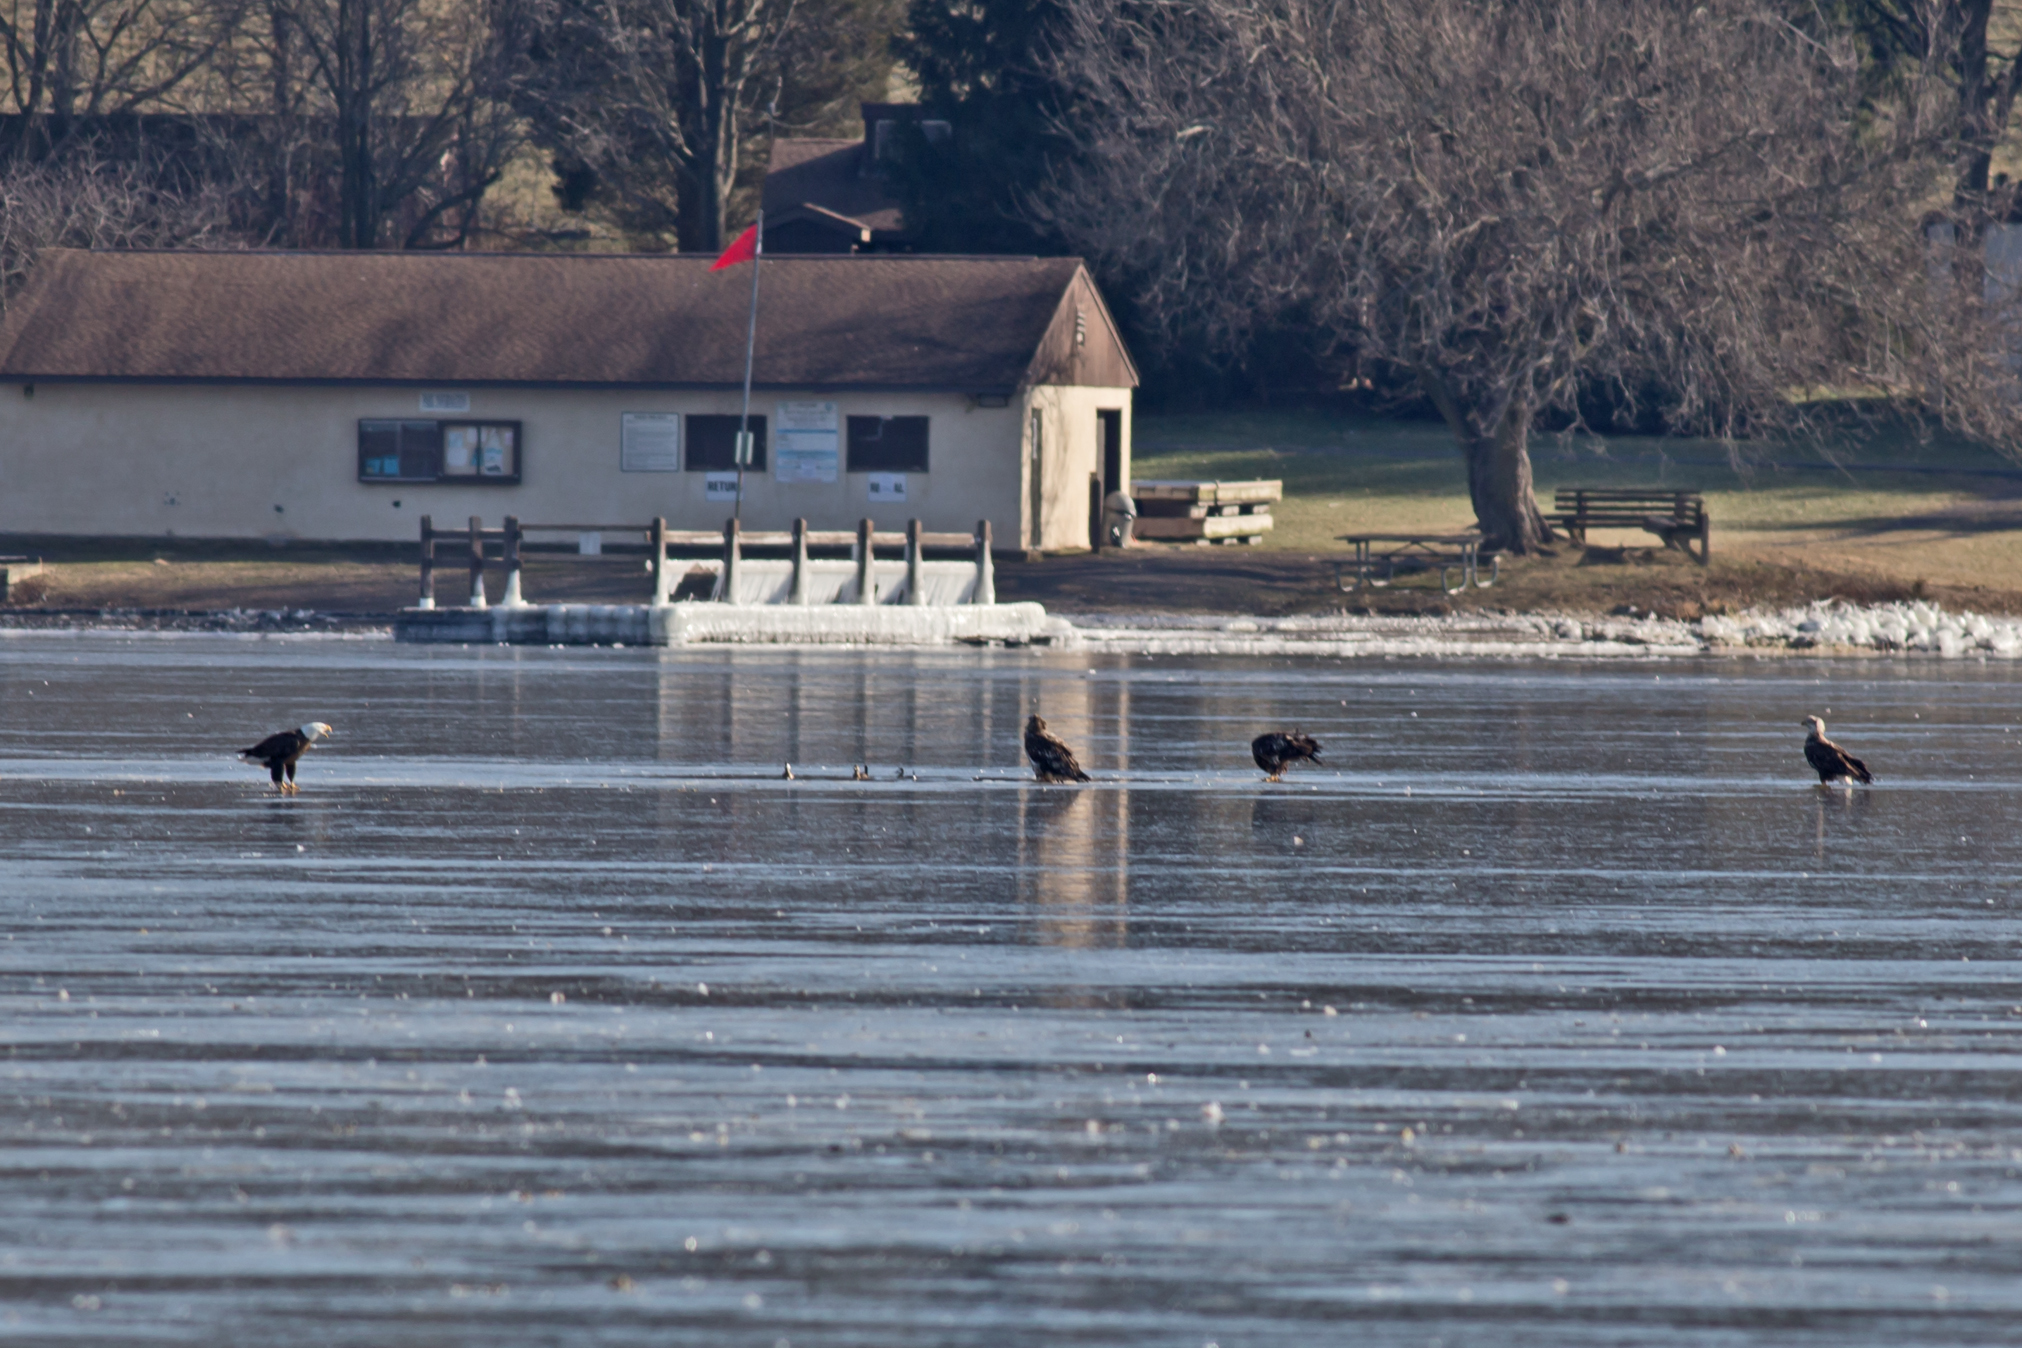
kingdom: Animalia
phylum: Chordata
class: Aves
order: Accipitriformes
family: Accipitridae
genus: Haliaeetus
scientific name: Haliaeetus leucocephalus
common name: Bald eagle
